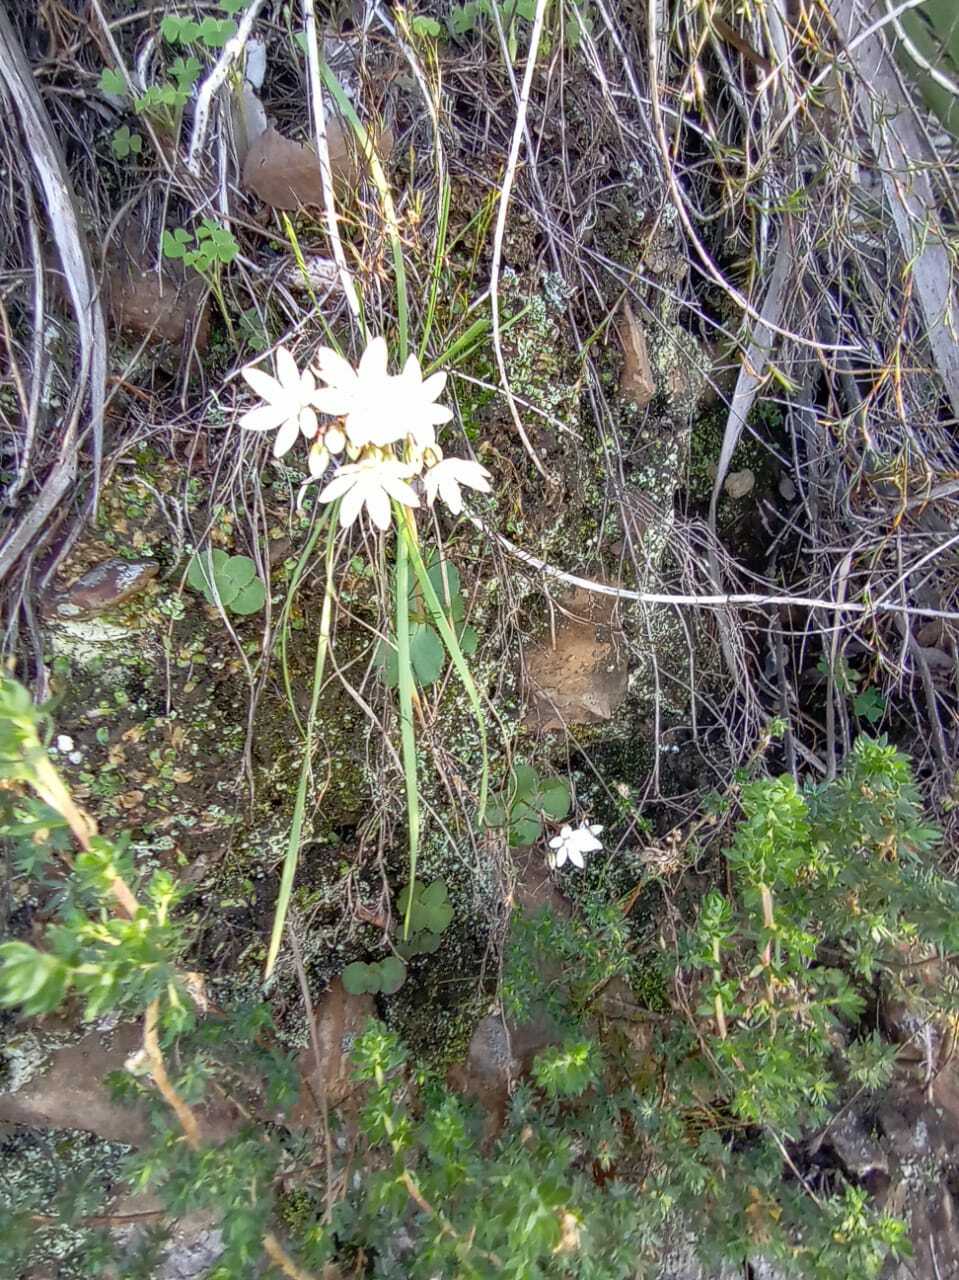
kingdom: Plantae
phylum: Tracheophyta
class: Magnoliopsida
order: Saxifragales
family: Crassulaceae
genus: Crassula
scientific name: Crassula capensis
